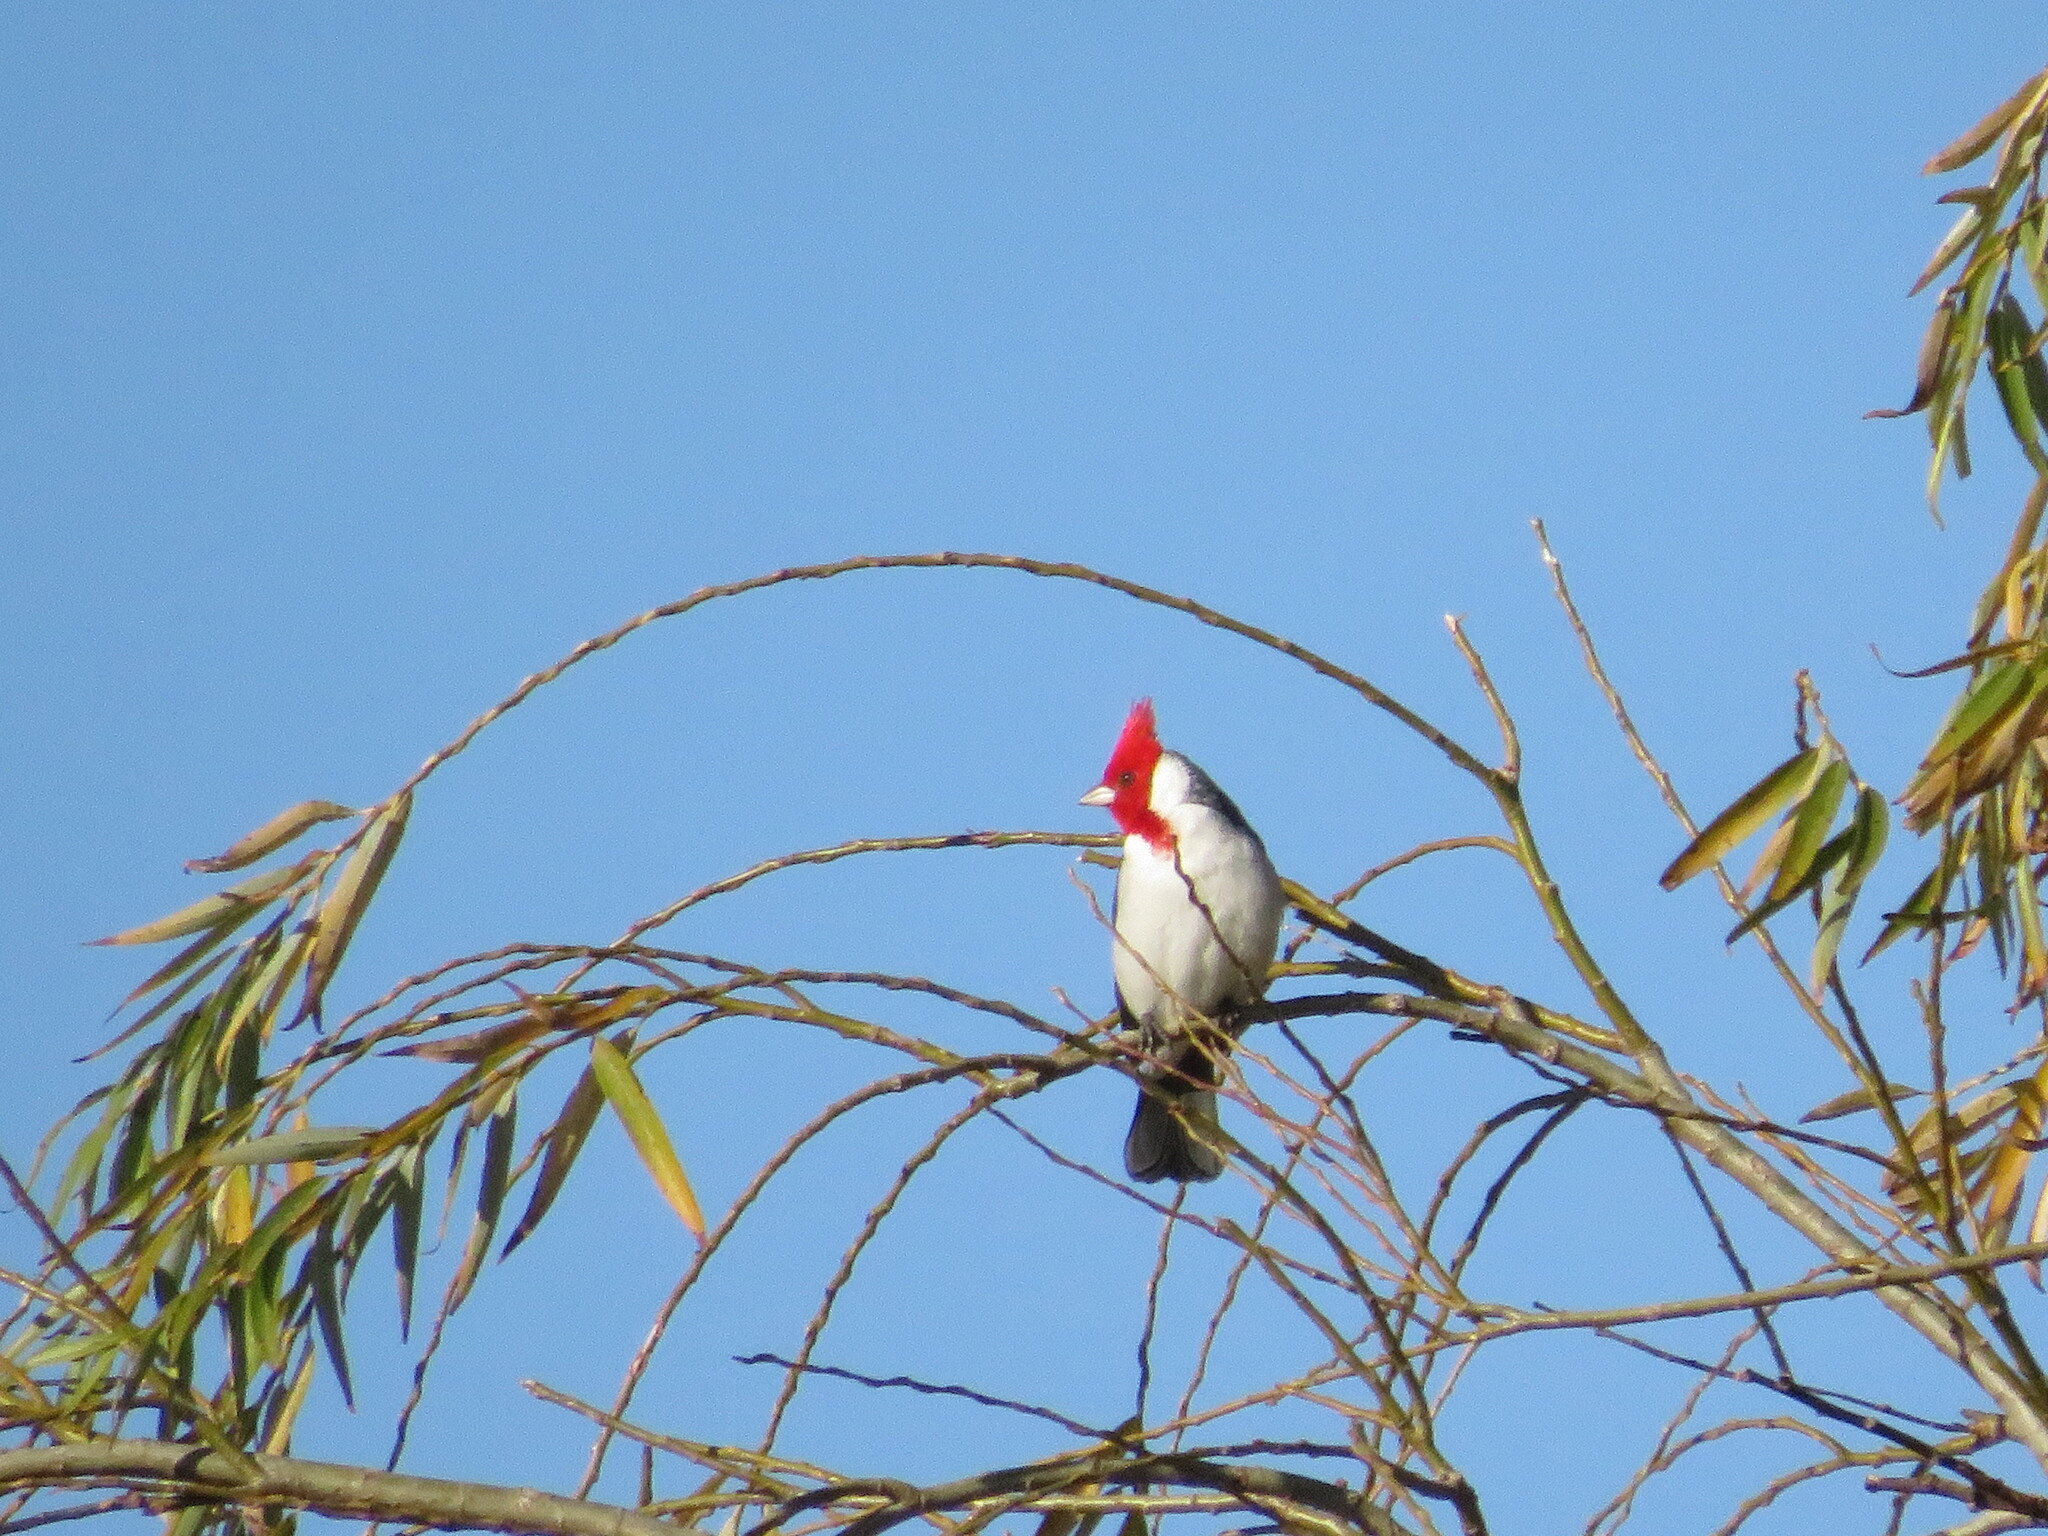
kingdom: Animalia
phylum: Chordata
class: Aves
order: Passeriformes
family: Thraupidae
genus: Paroaria
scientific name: Paroaria coronata
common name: Red-crested cardinal
